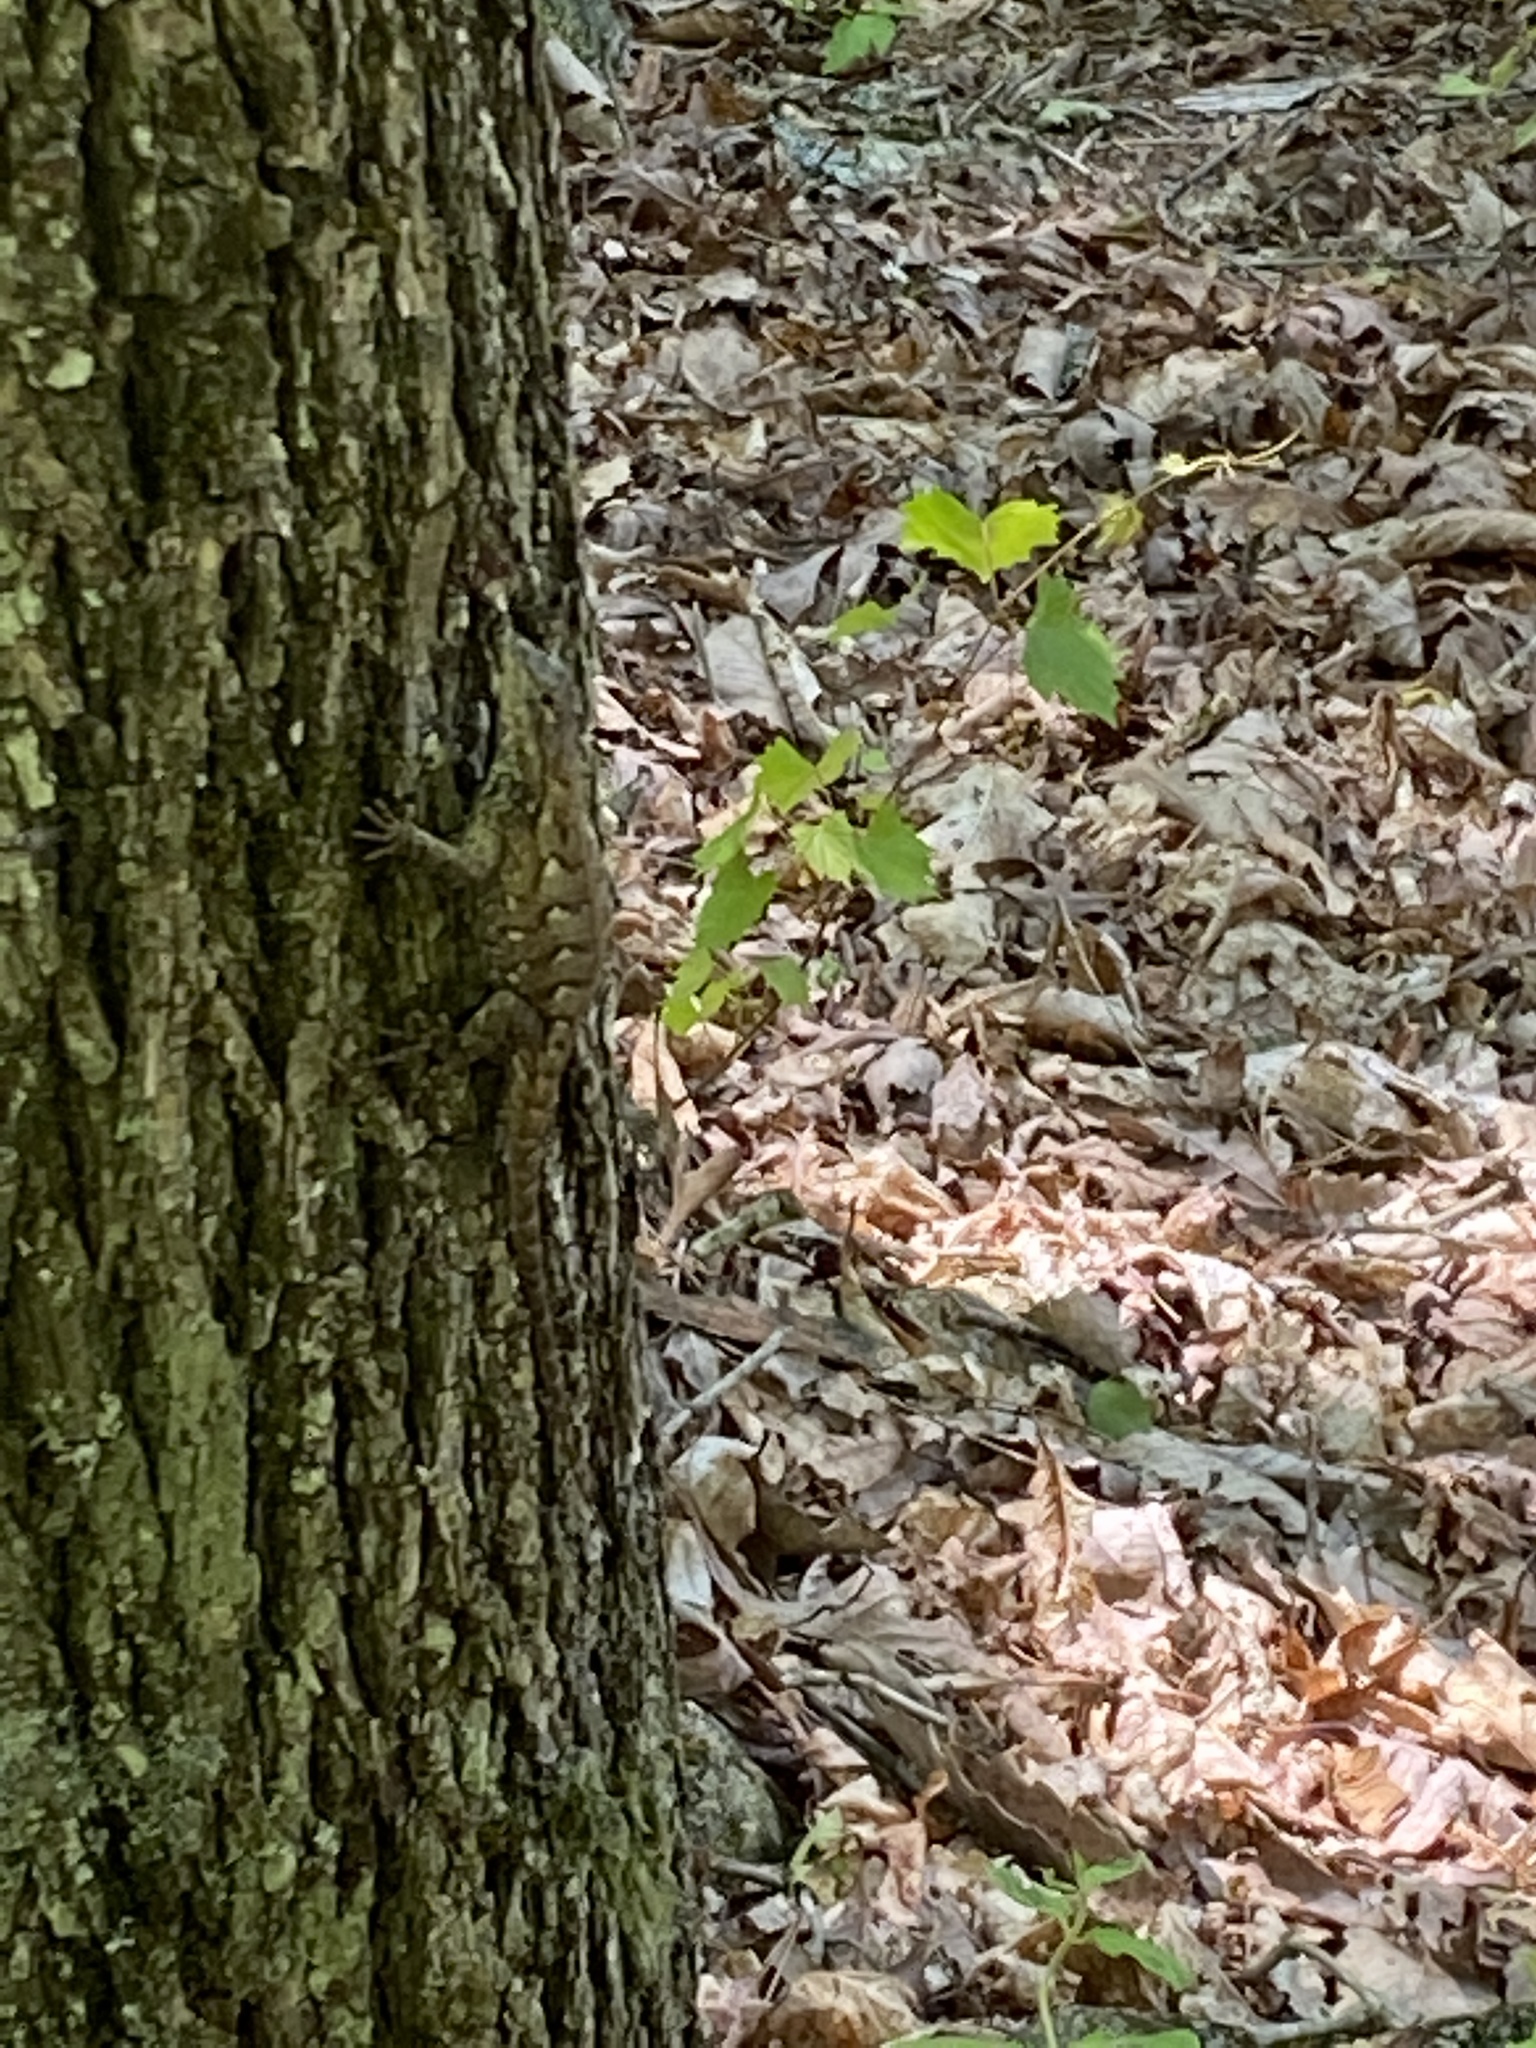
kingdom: Animalia
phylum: Chordata
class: Squamata
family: Phrynosomatidae
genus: Sceloporus
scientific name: Sceloporus undulatus
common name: Eastern fence lizard
